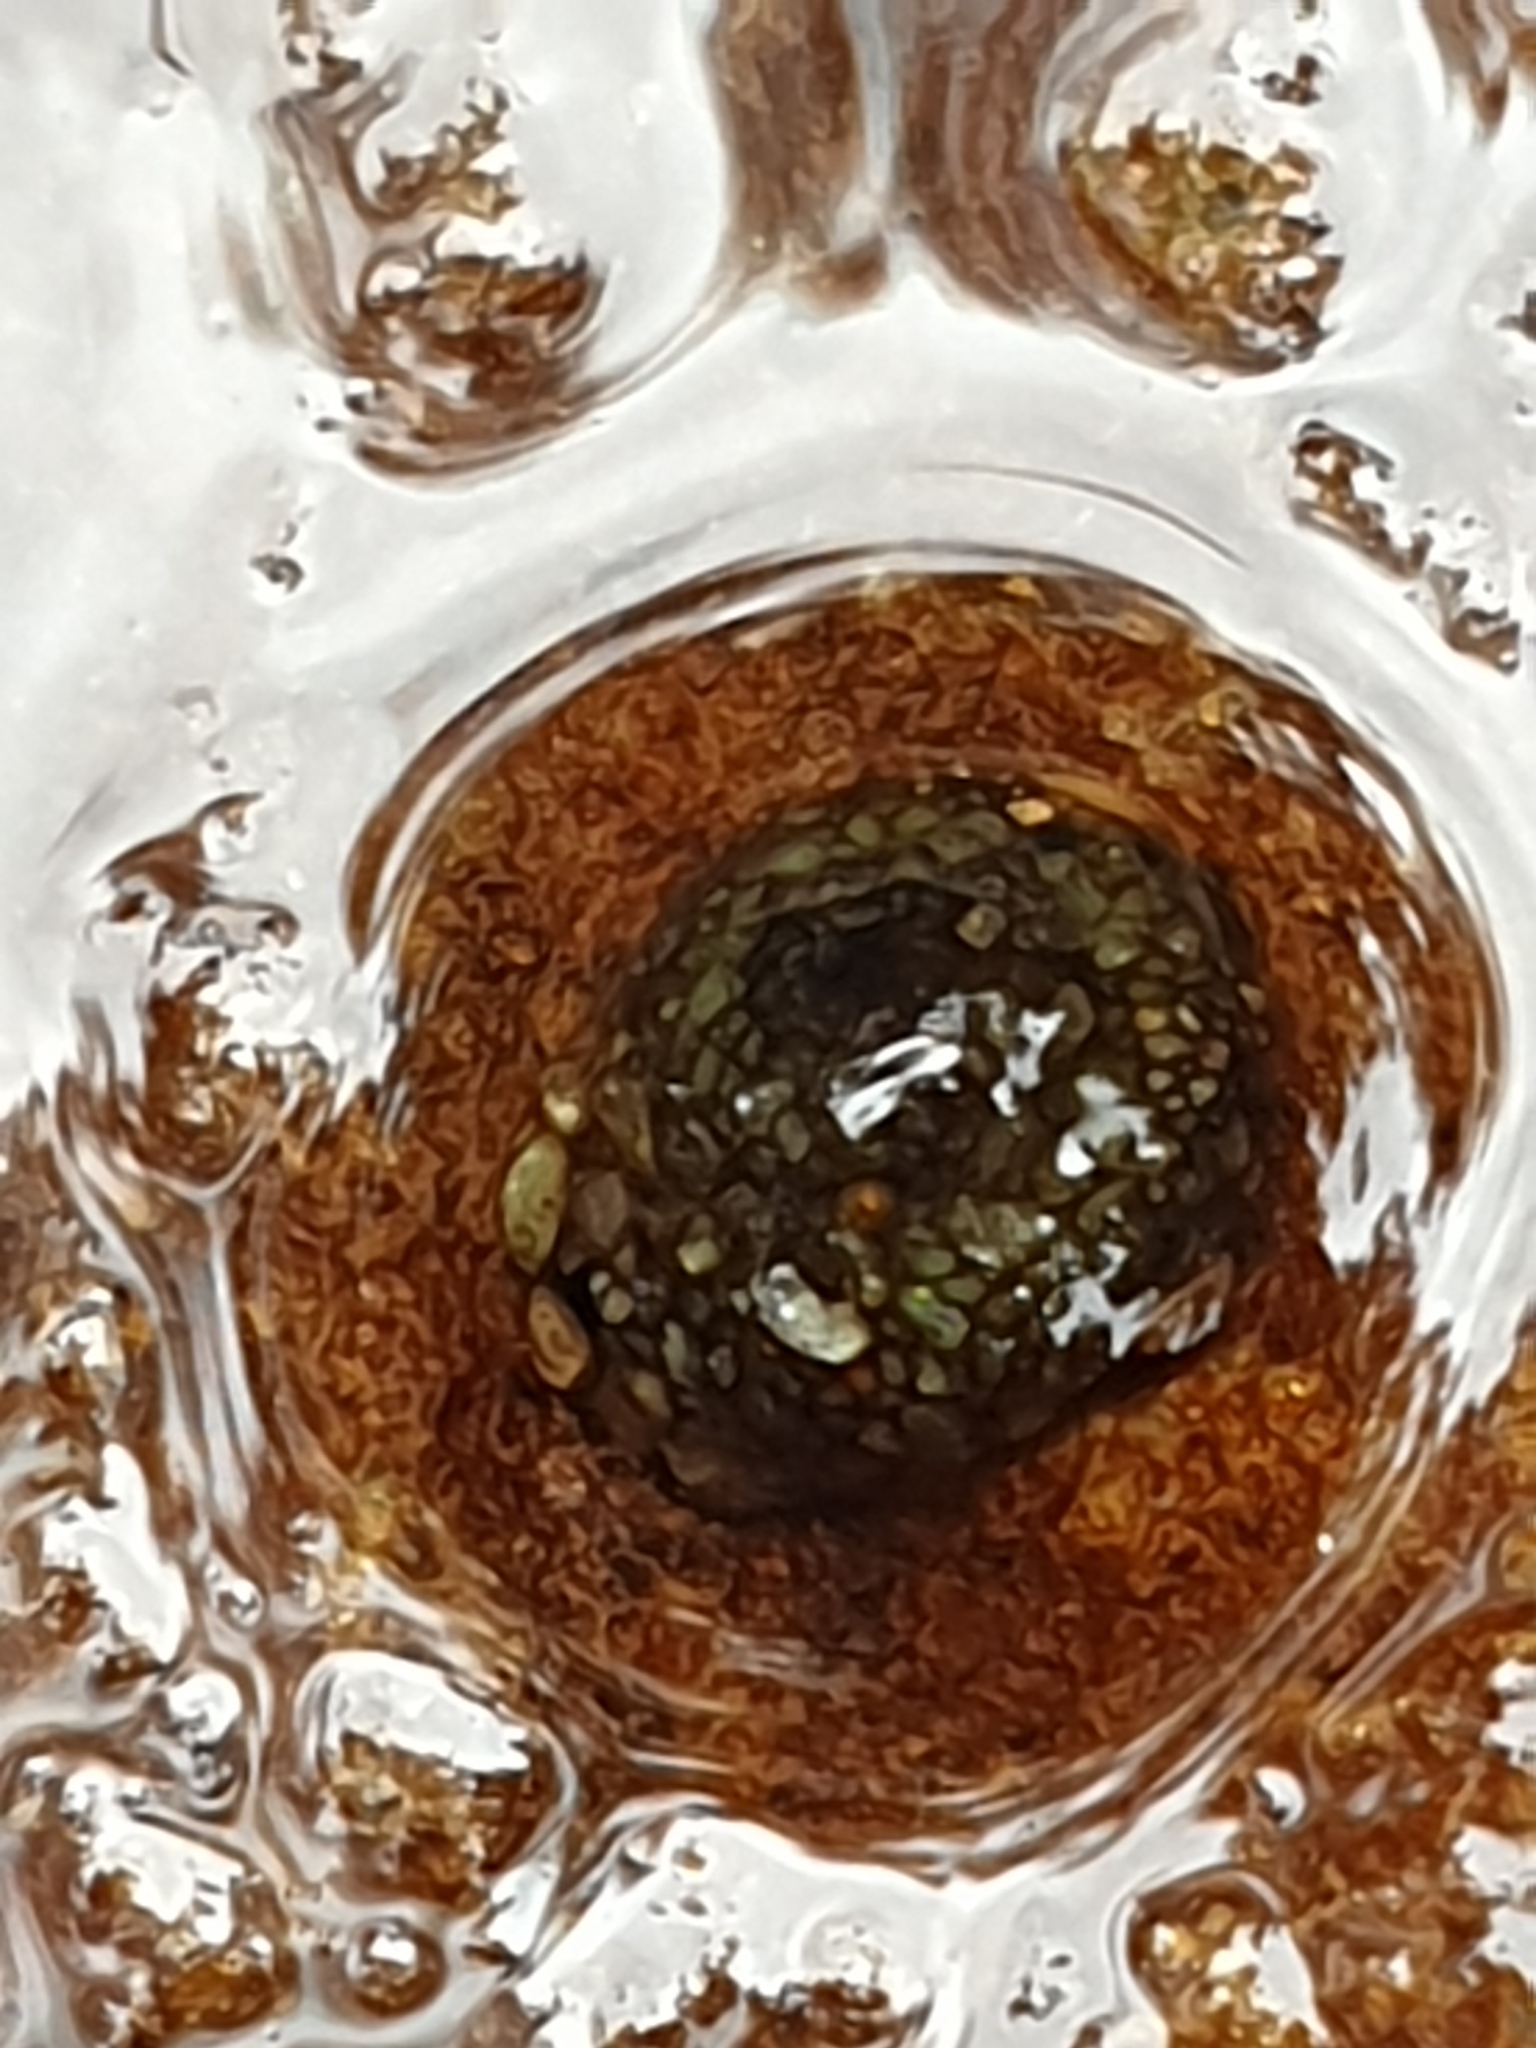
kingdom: Animalia
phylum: Arthropoda
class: Insecta
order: Trichoptera
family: Helicopsychidae
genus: Helicopsyche
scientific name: Helicopsyche
